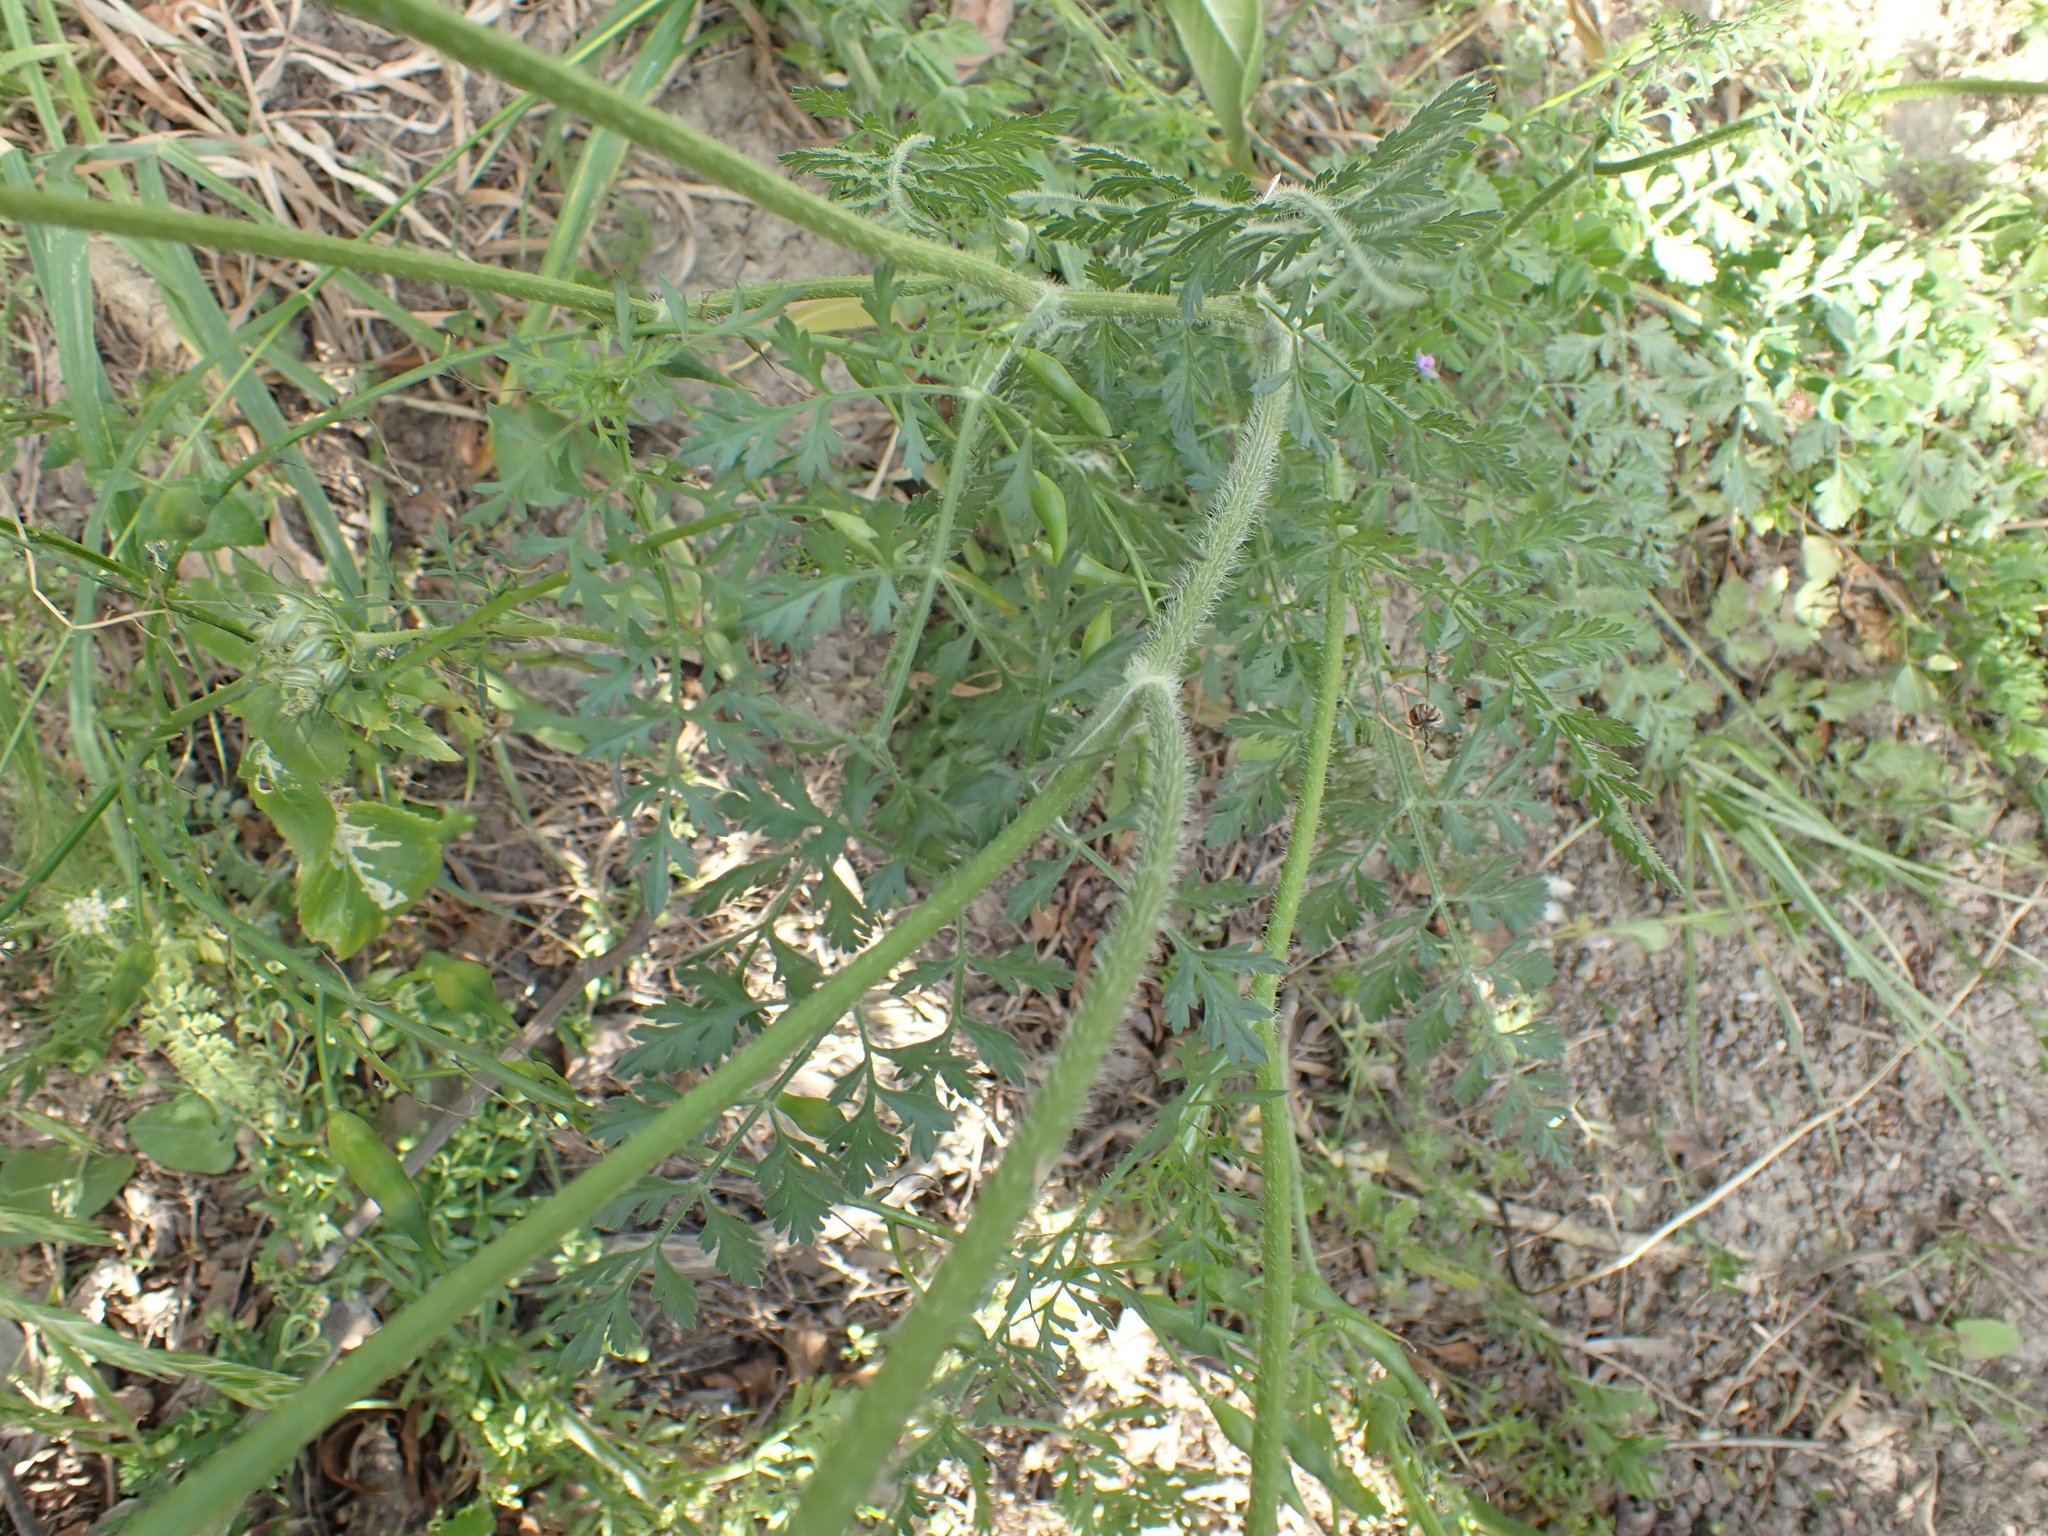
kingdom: Plantae
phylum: Tracheophyta
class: Magnoliopsida
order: Apiales
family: Apiaceae
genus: Daucus
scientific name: Daucus carota
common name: Wild carrot
